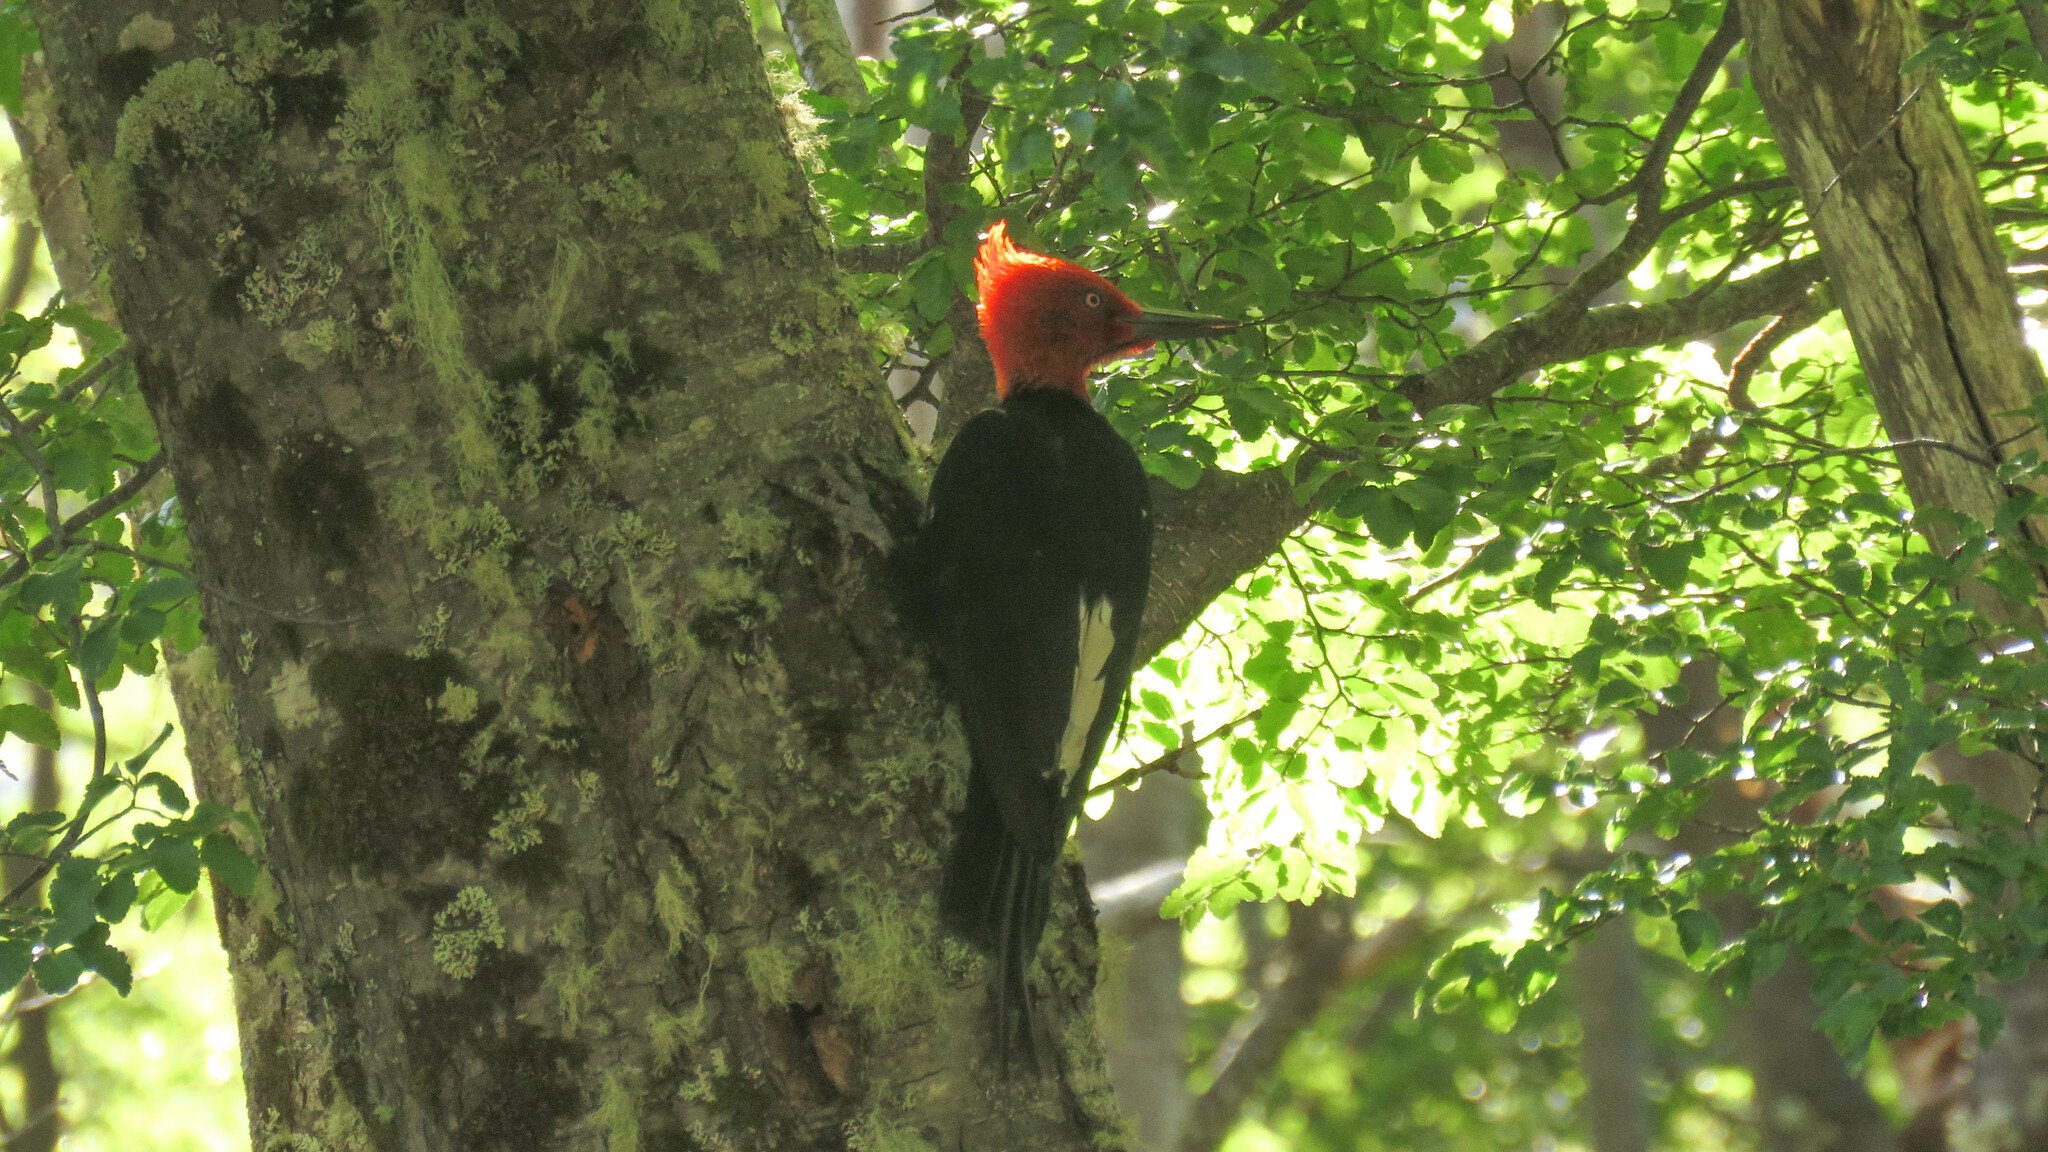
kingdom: Animalia
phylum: Chordata
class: Aves
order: Piciformes
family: Picidae
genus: Campephilus
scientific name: Campephilus magellanicus
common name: Magellanic woodpecker
